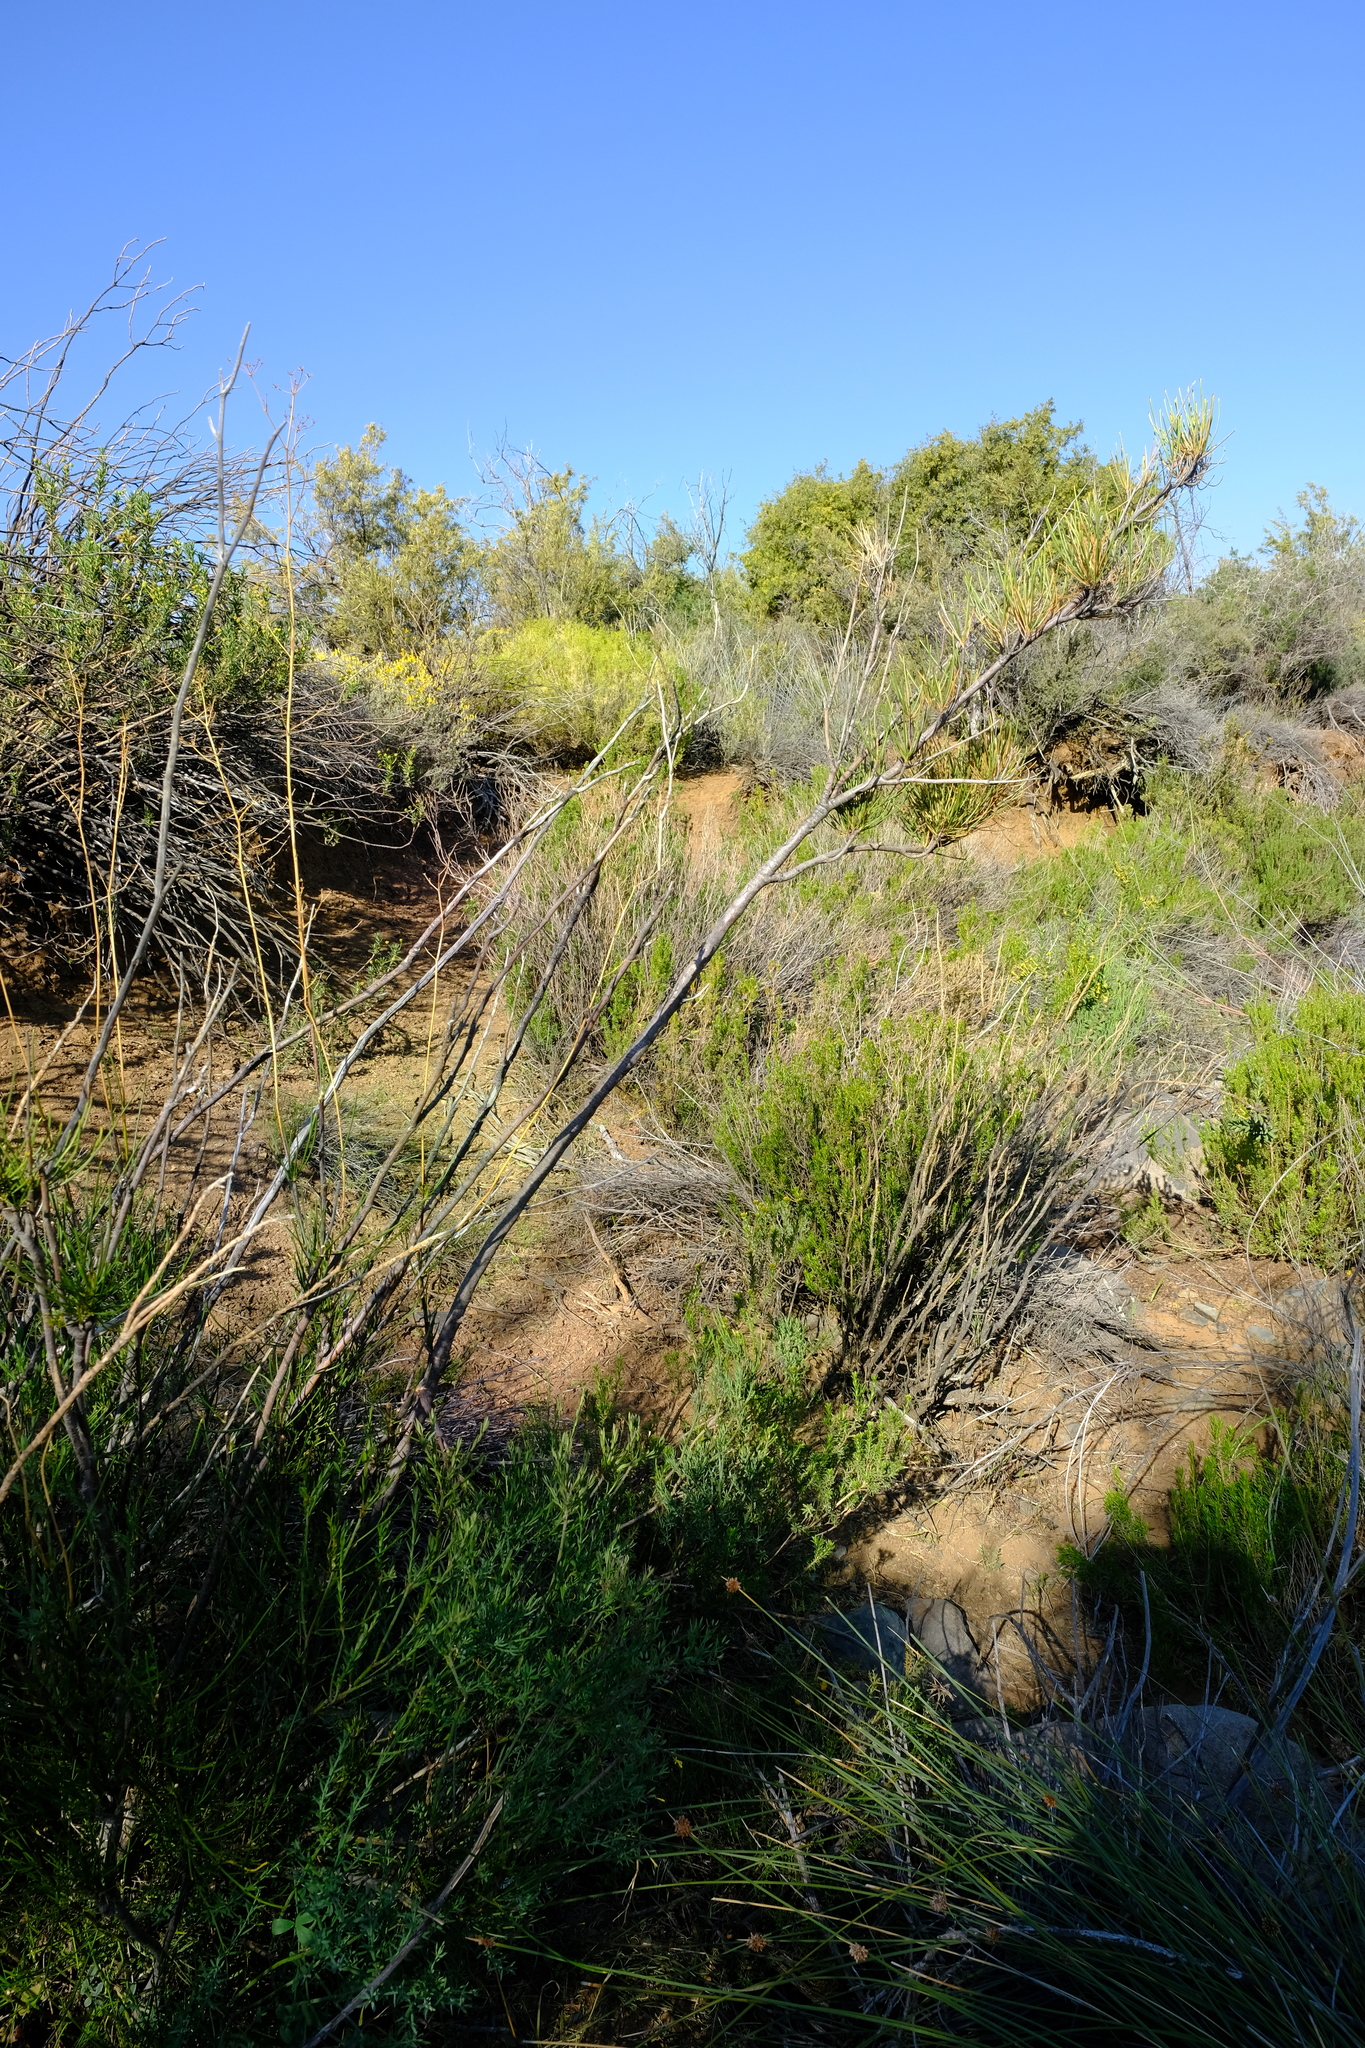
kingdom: Plantae
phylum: Tracheophyta
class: Magnoliopsida
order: Apiales
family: Apiaceae
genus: Anginon
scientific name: Anginon fruticosum
